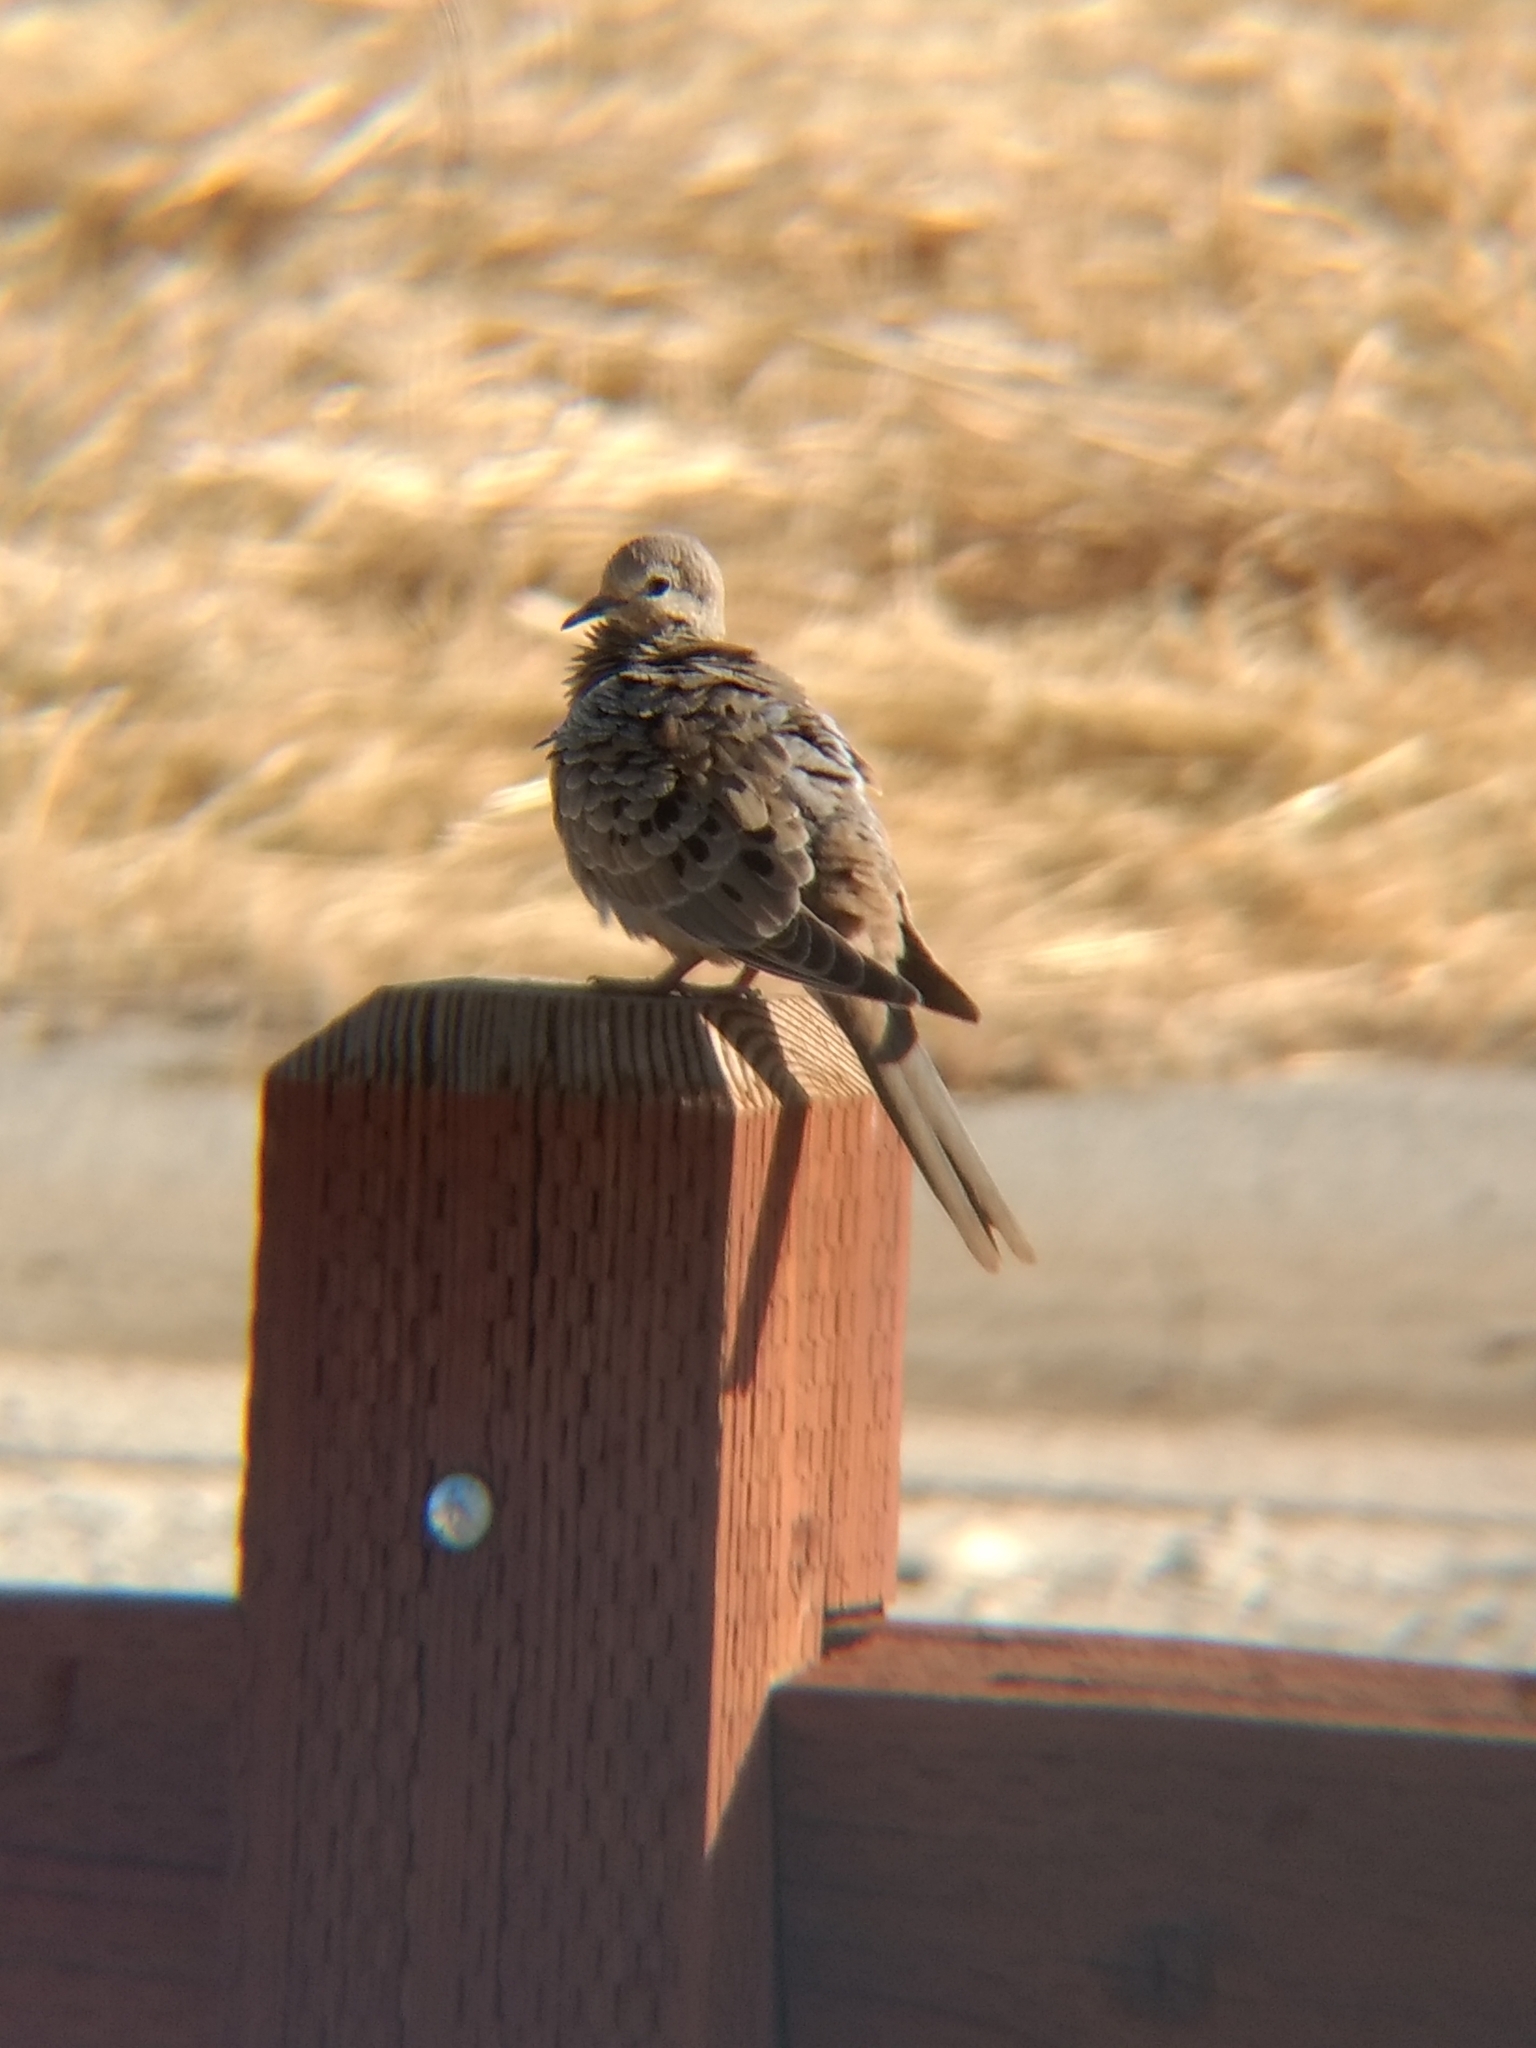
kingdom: Animalia
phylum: Chordata
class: Aves
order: Columbiformes
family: Columbidae
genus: Zenaida
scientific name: Zenaida macroura
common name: Mourning dove
